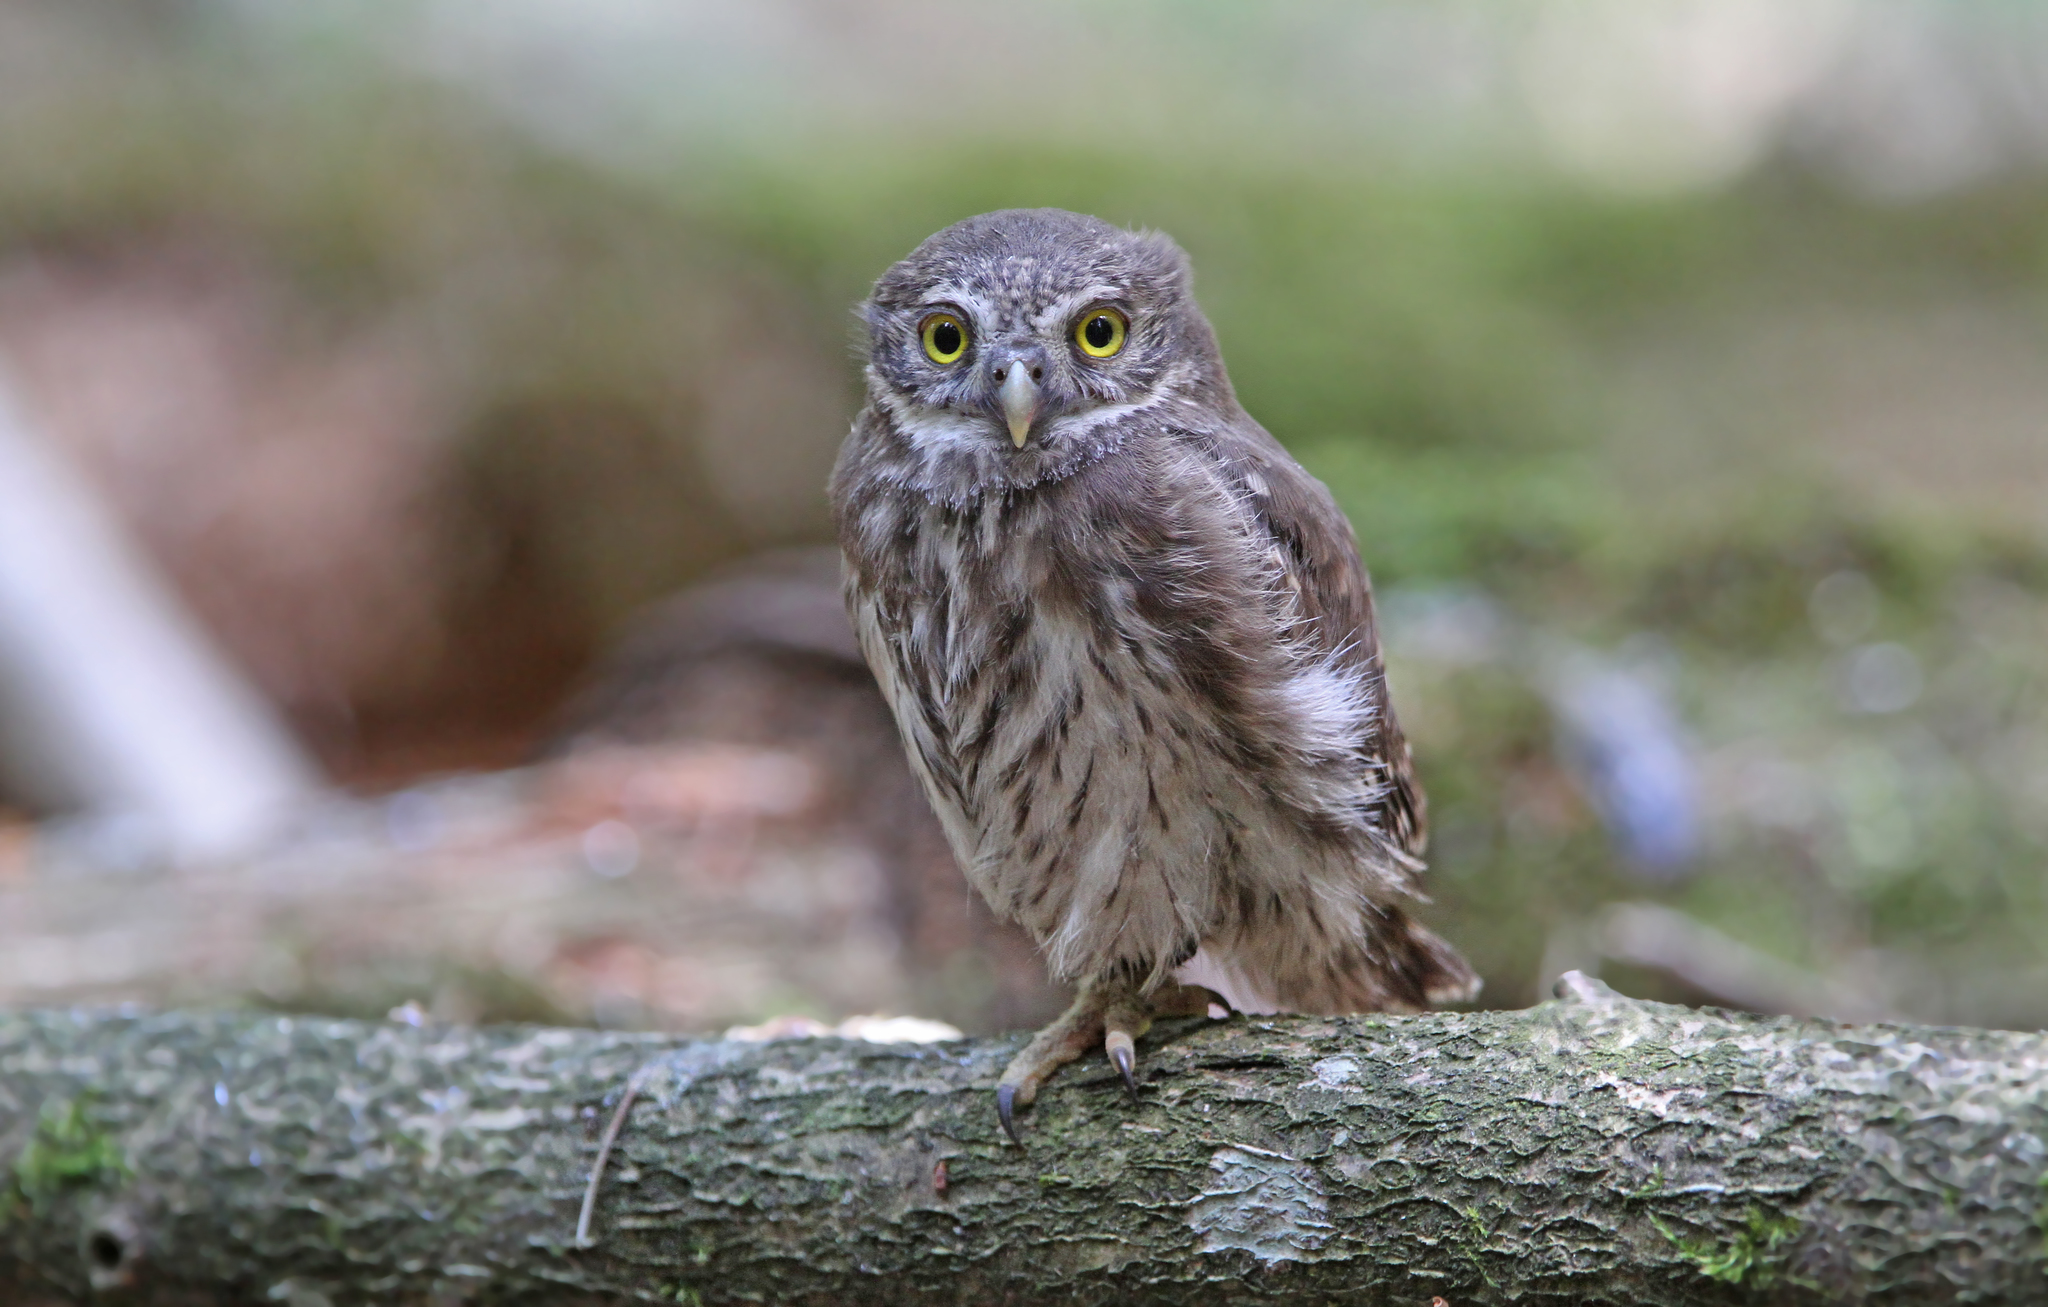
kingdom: Animalia
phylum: Chordata
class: Aves
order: Strigiformes
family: Strigidae
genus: Glaucidium
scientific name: Glaucidium passerinum
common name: Eurasian pygmy owl
